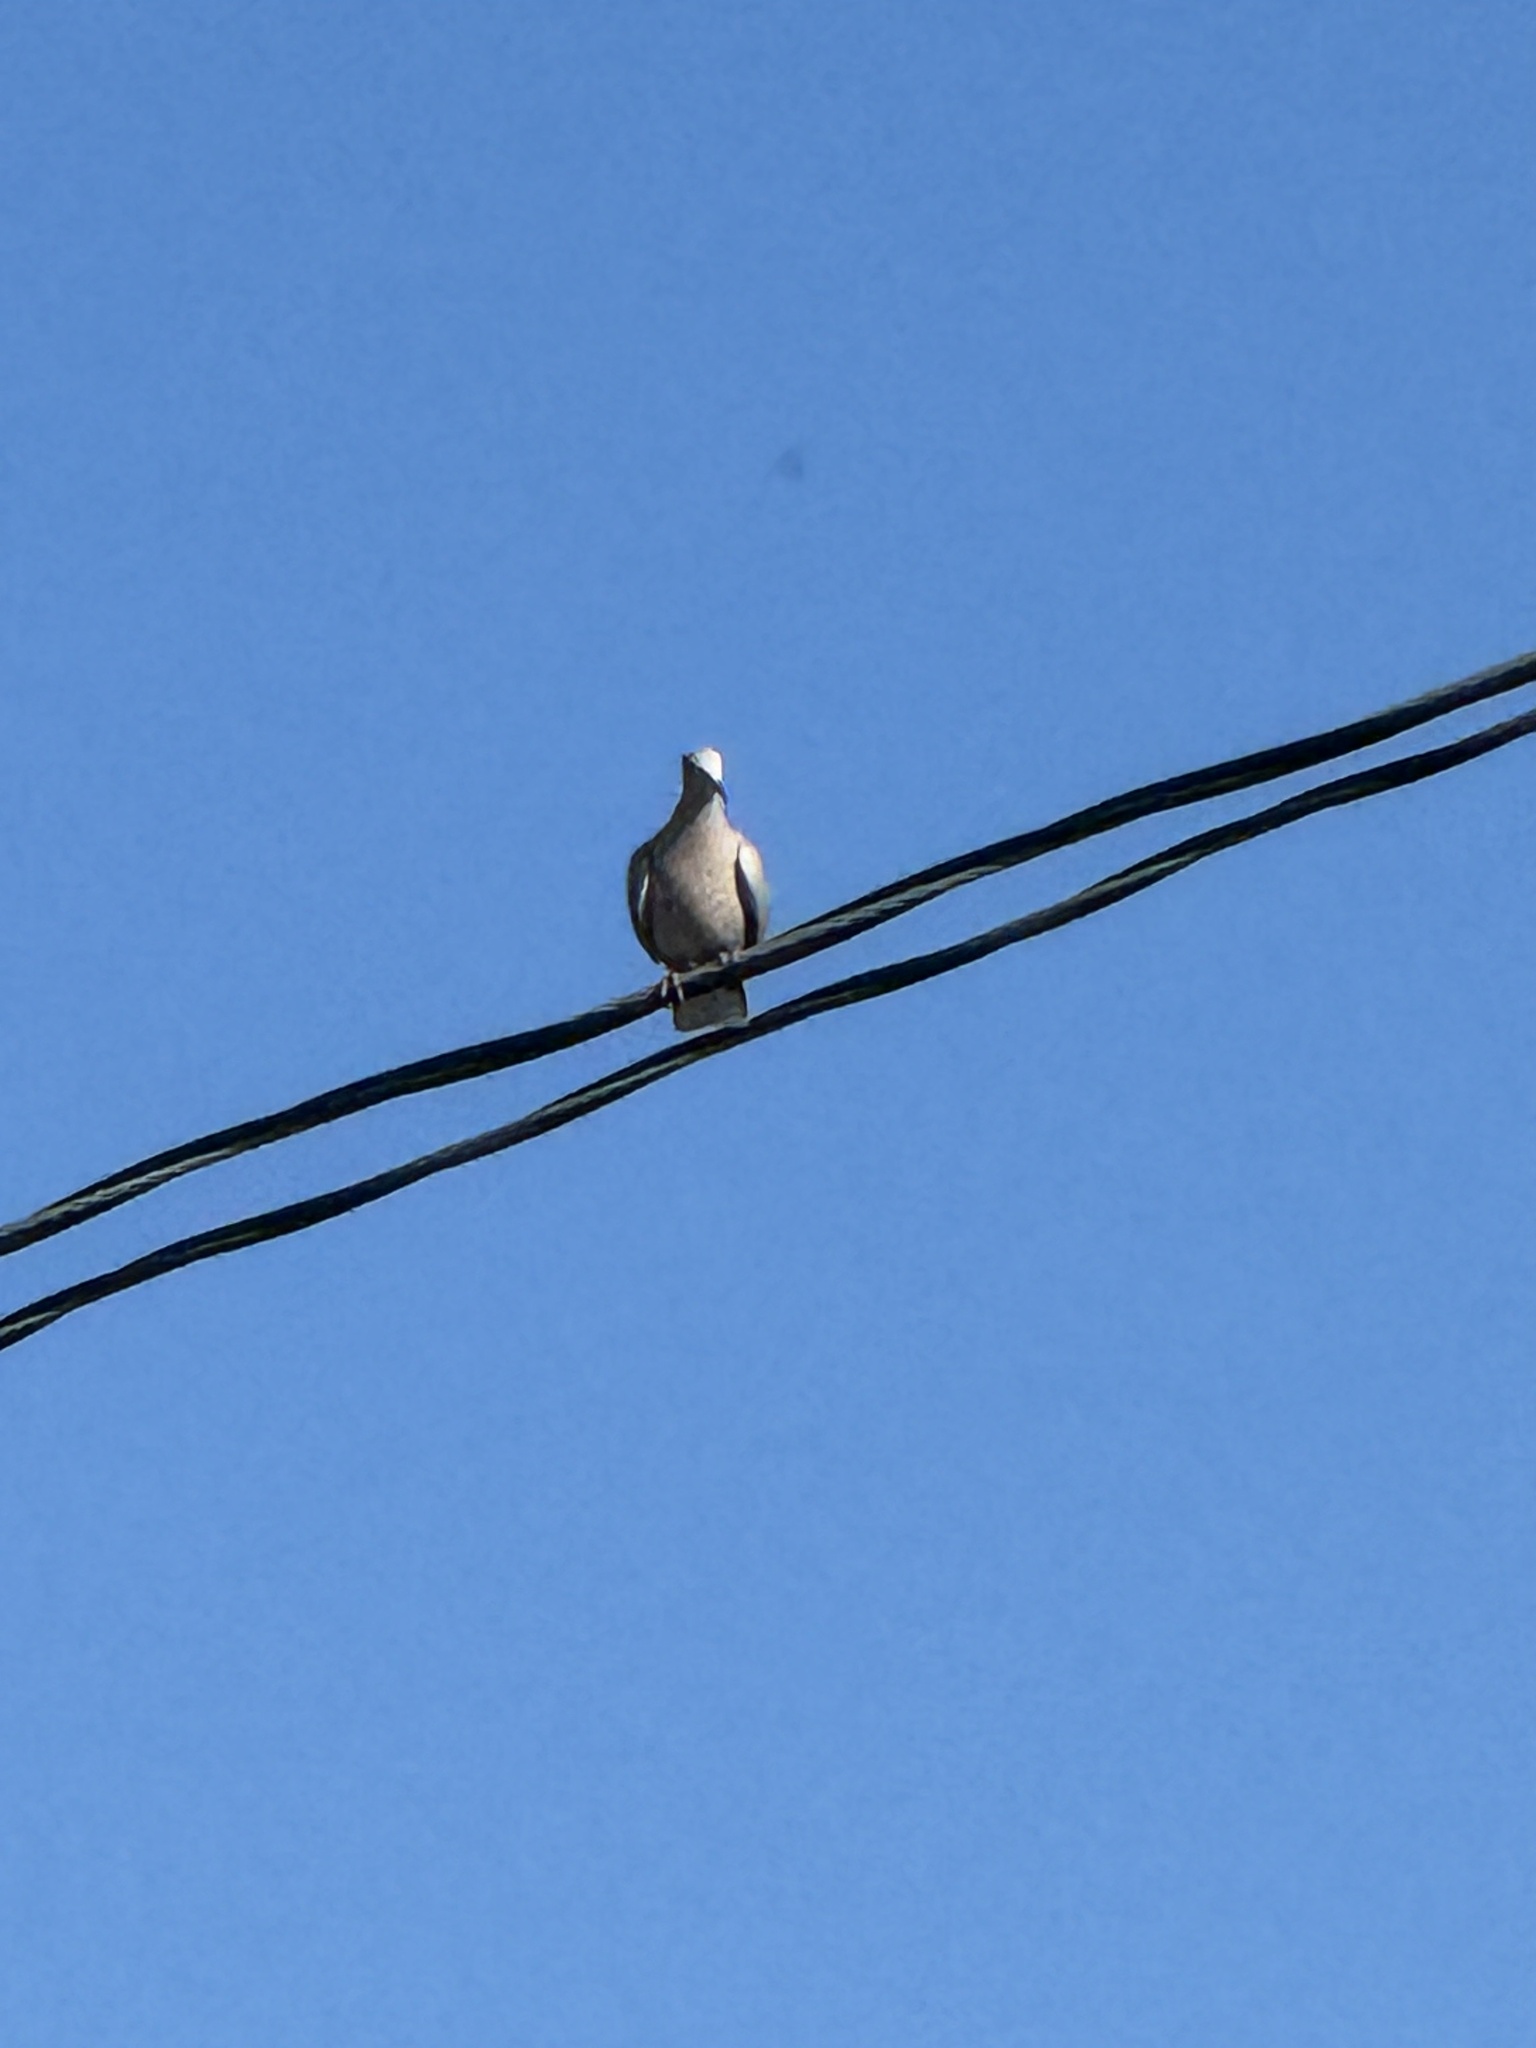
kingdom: Animalia
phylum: Chordata
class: Aves
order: Columbiformes
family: Columbidae
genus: Streptopelia
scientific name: Streptopelia decaocto
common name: Eurasian collared dove
